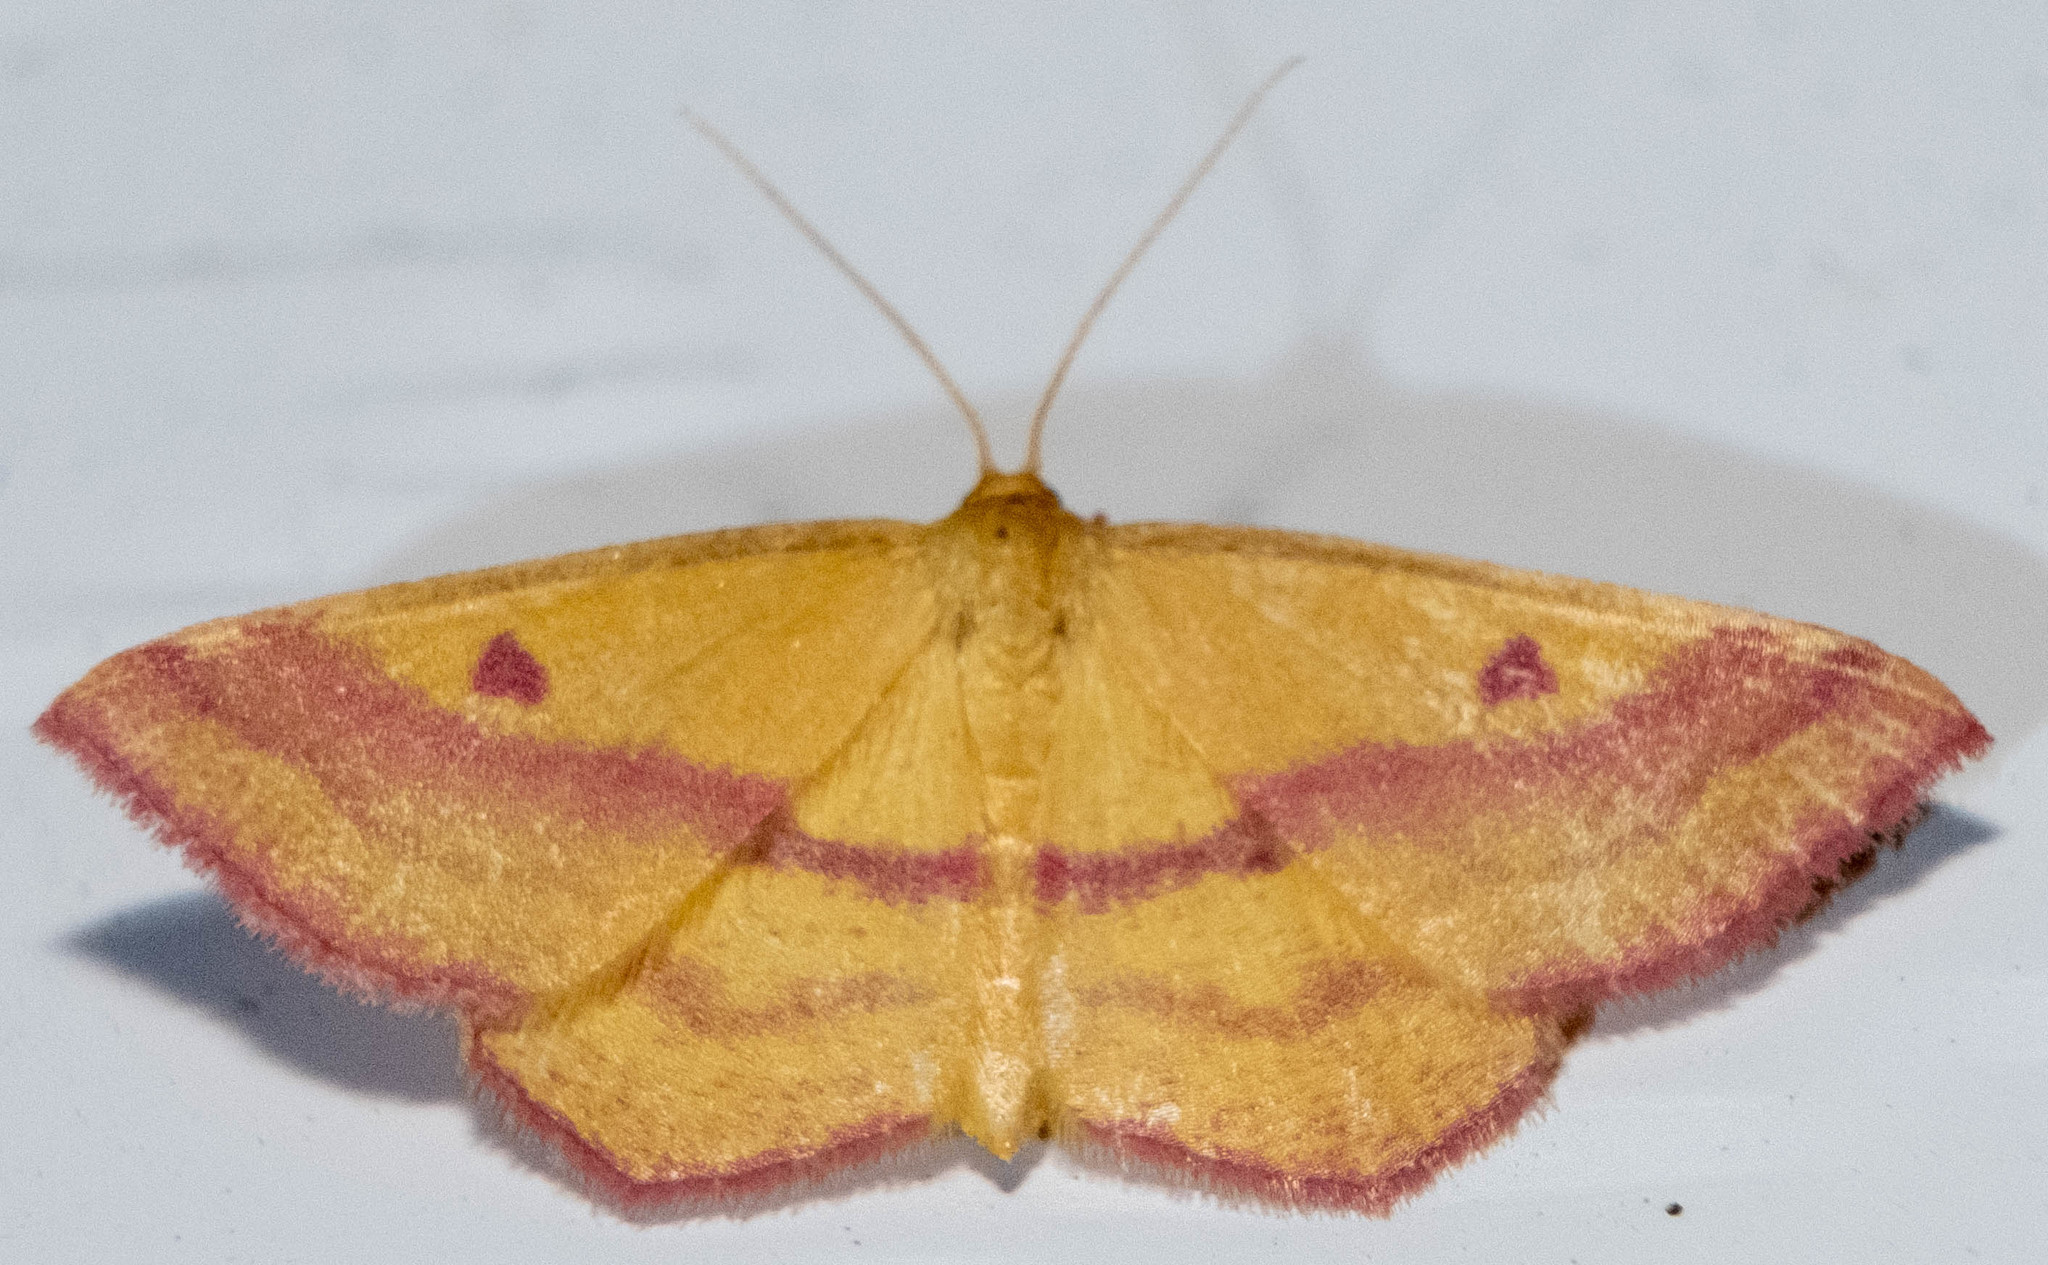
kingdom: Animalia
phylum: Arthropoda
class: Insecta
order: Lepidoptera
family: Geometridae
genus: Haematopis
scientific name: Haematopis grataria
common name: Chickweed geometer
